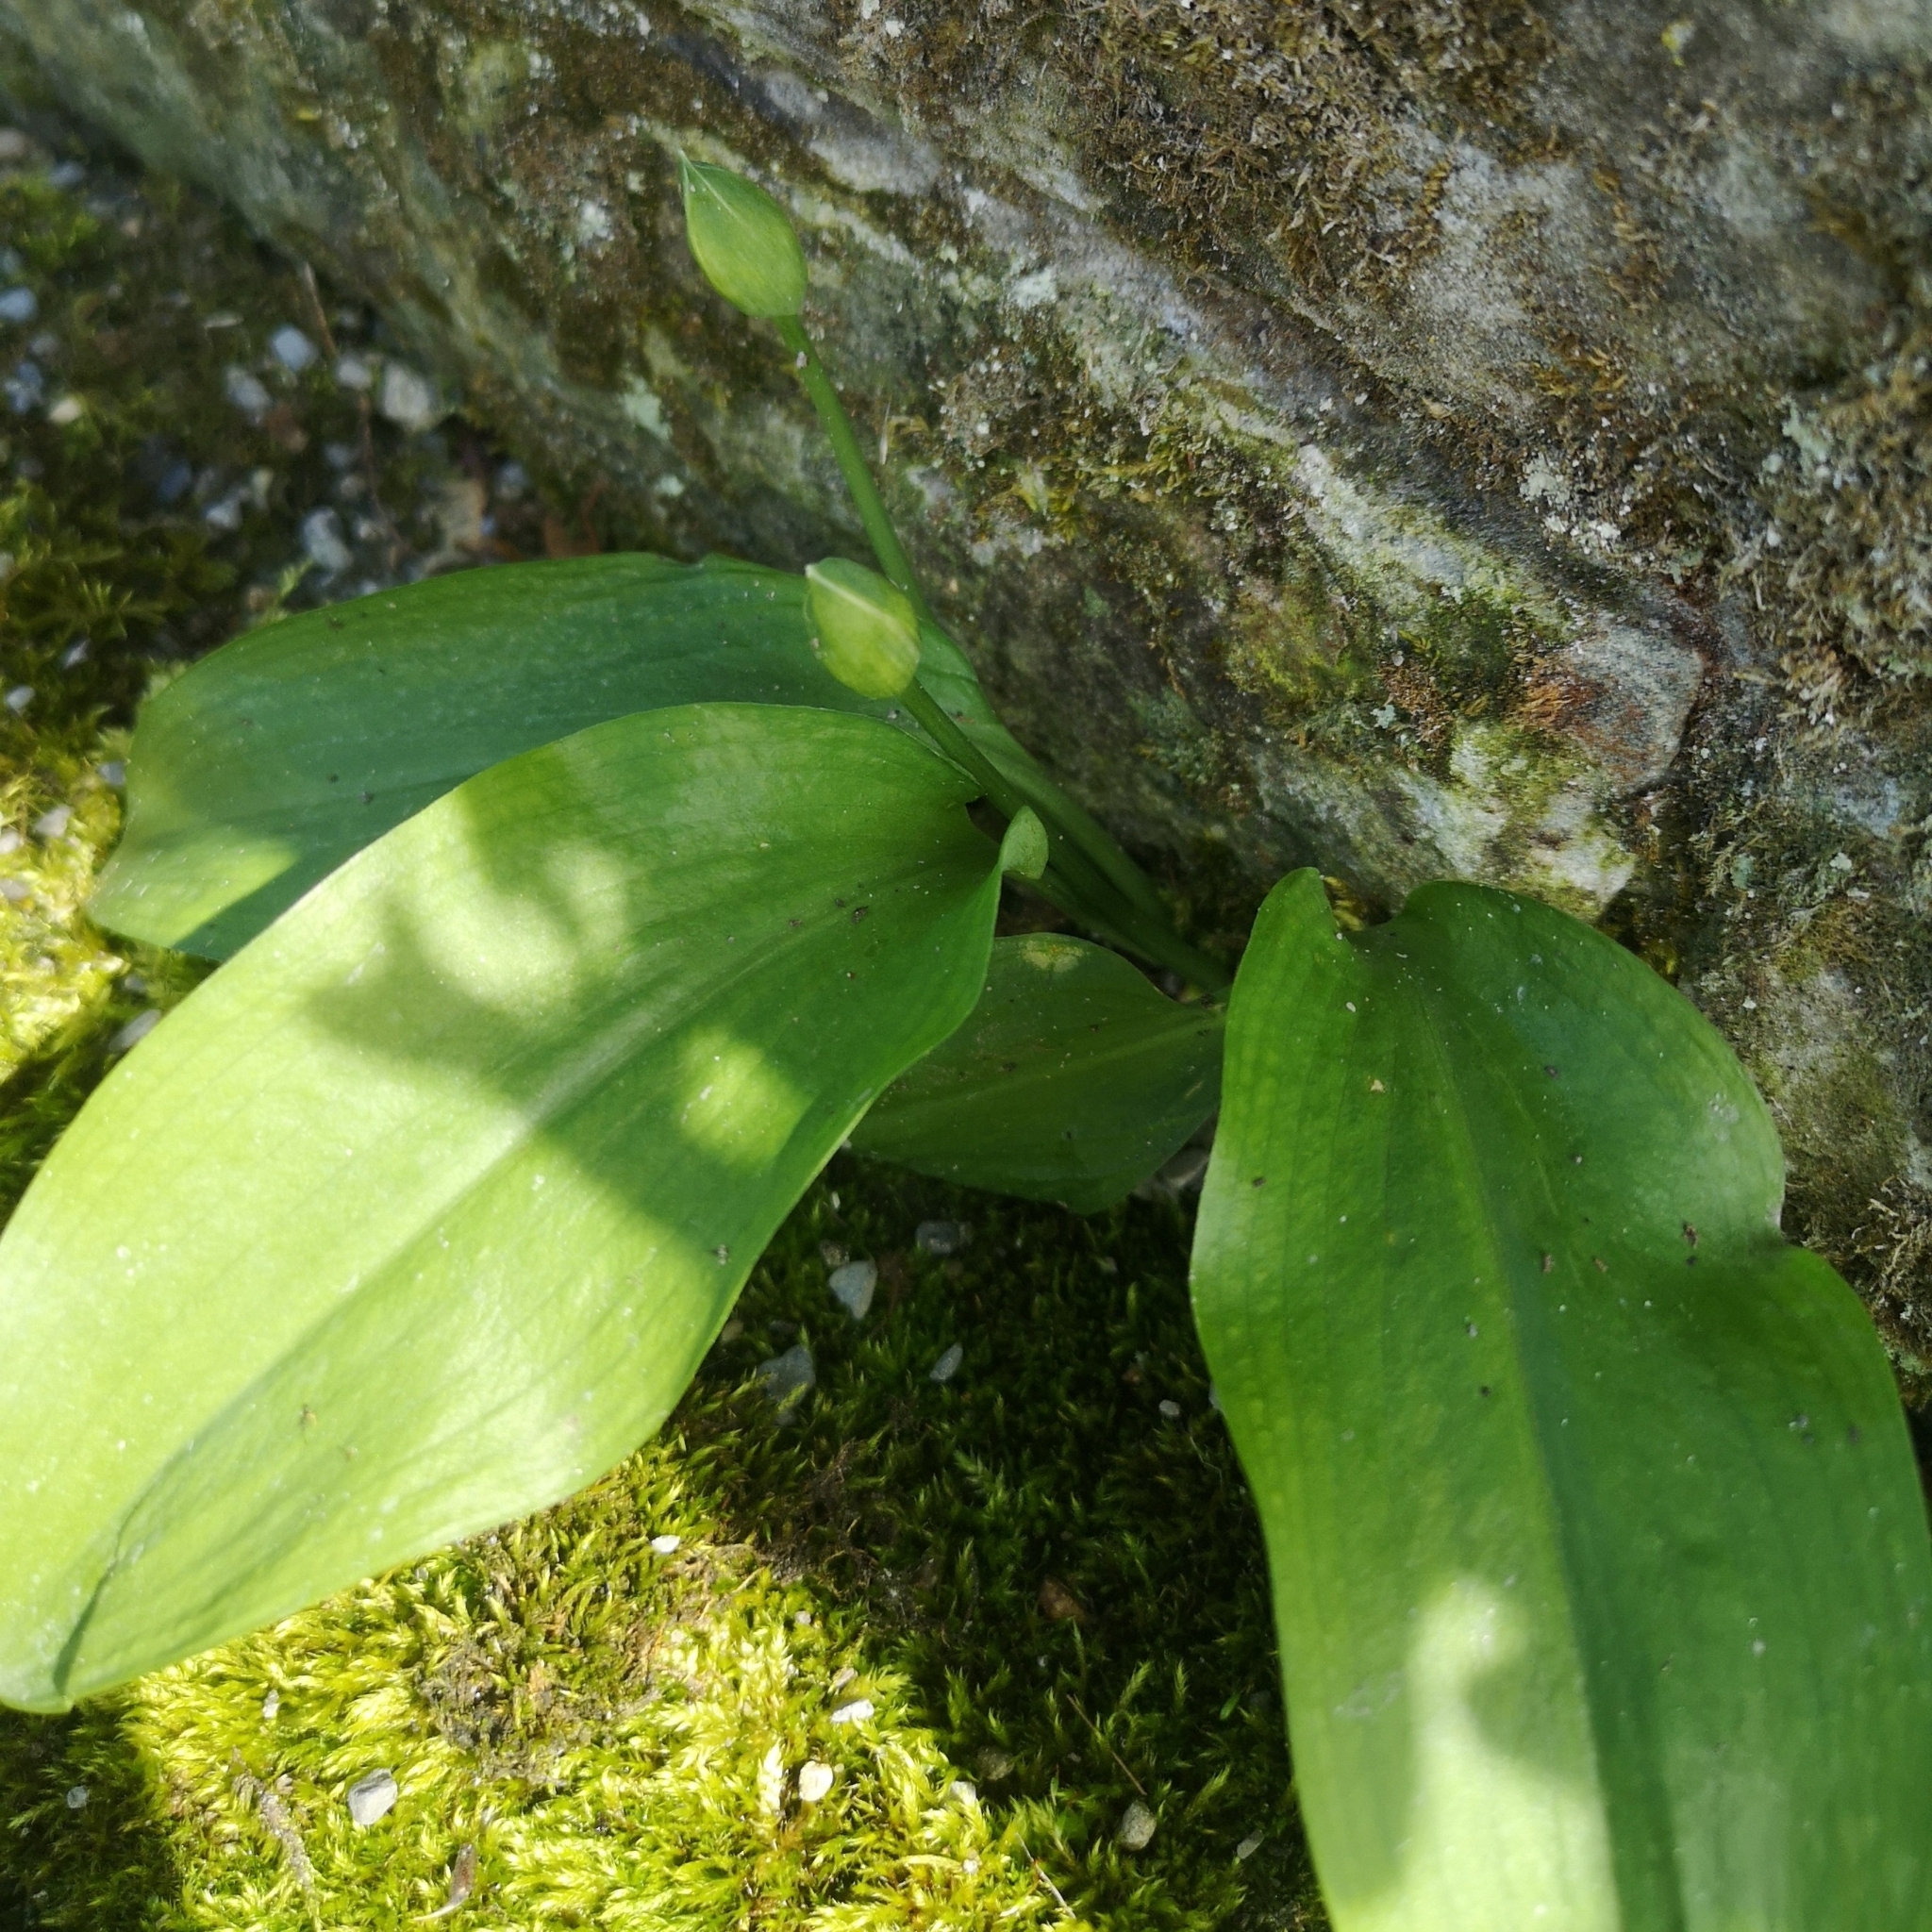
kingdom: Plantae
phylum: Tracheophyta
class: Liliopsida
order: Asparagales
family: Amaryllidaceae
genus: Allium
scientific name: Allium ursinum
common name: Ramsons
